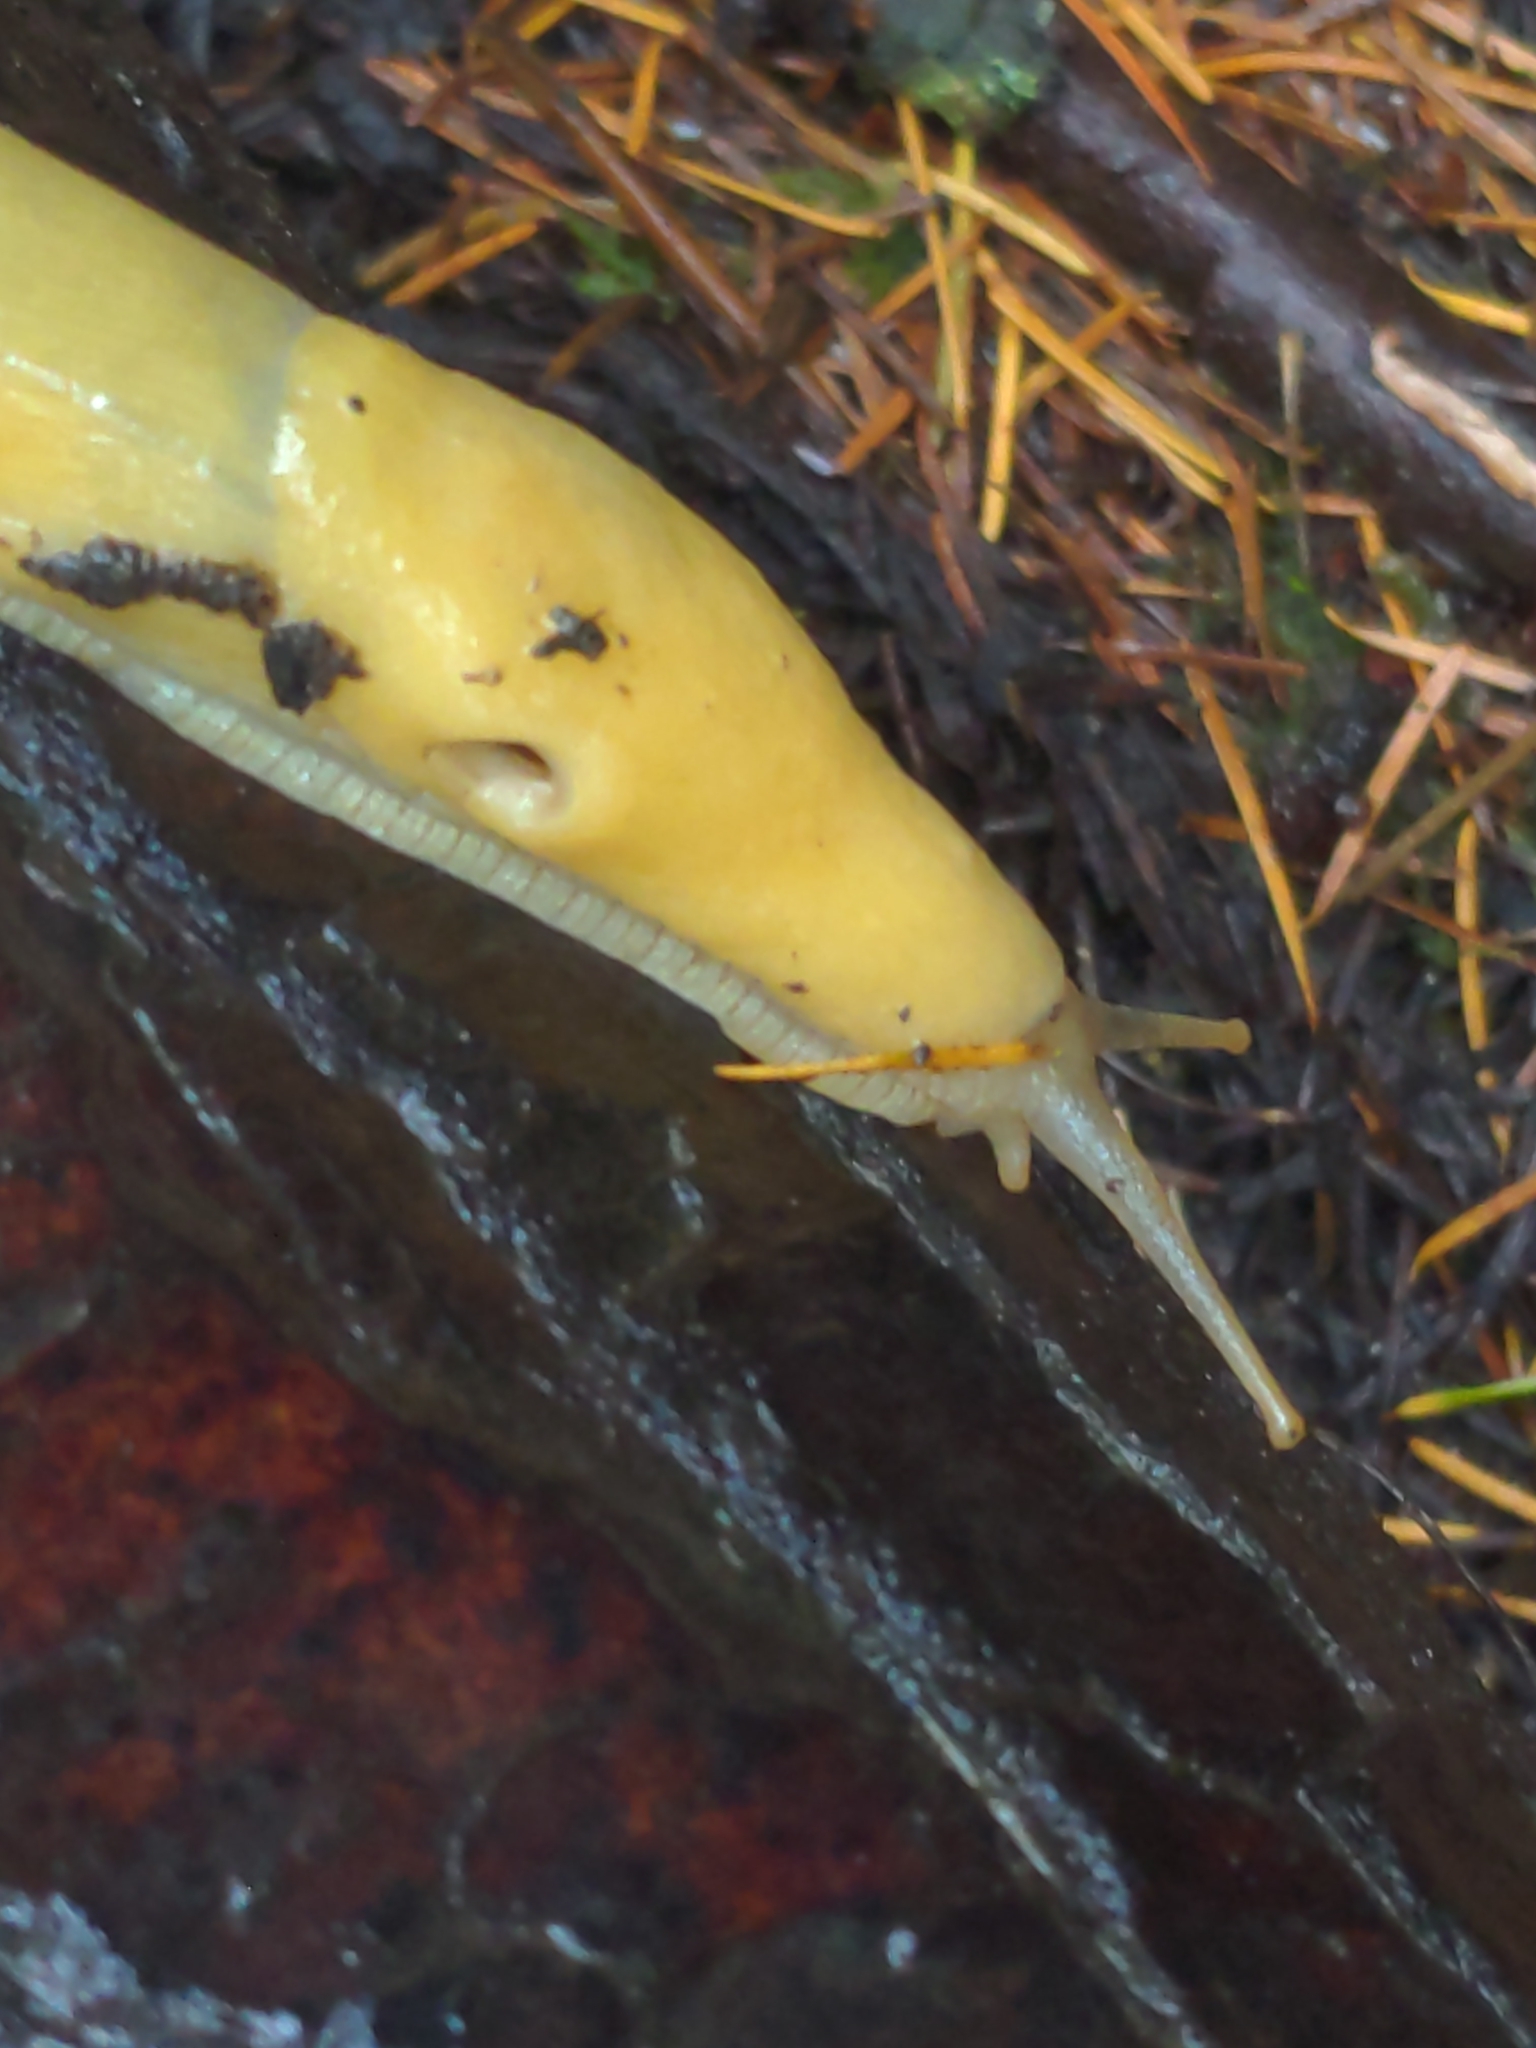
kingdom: Animalia
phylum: Mollusca
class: Gastropoda
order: Stylommatophora
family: Ariolimacidae
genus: Ariolimax
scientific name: Ariolimax columbianus
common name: Pacific banana slug
